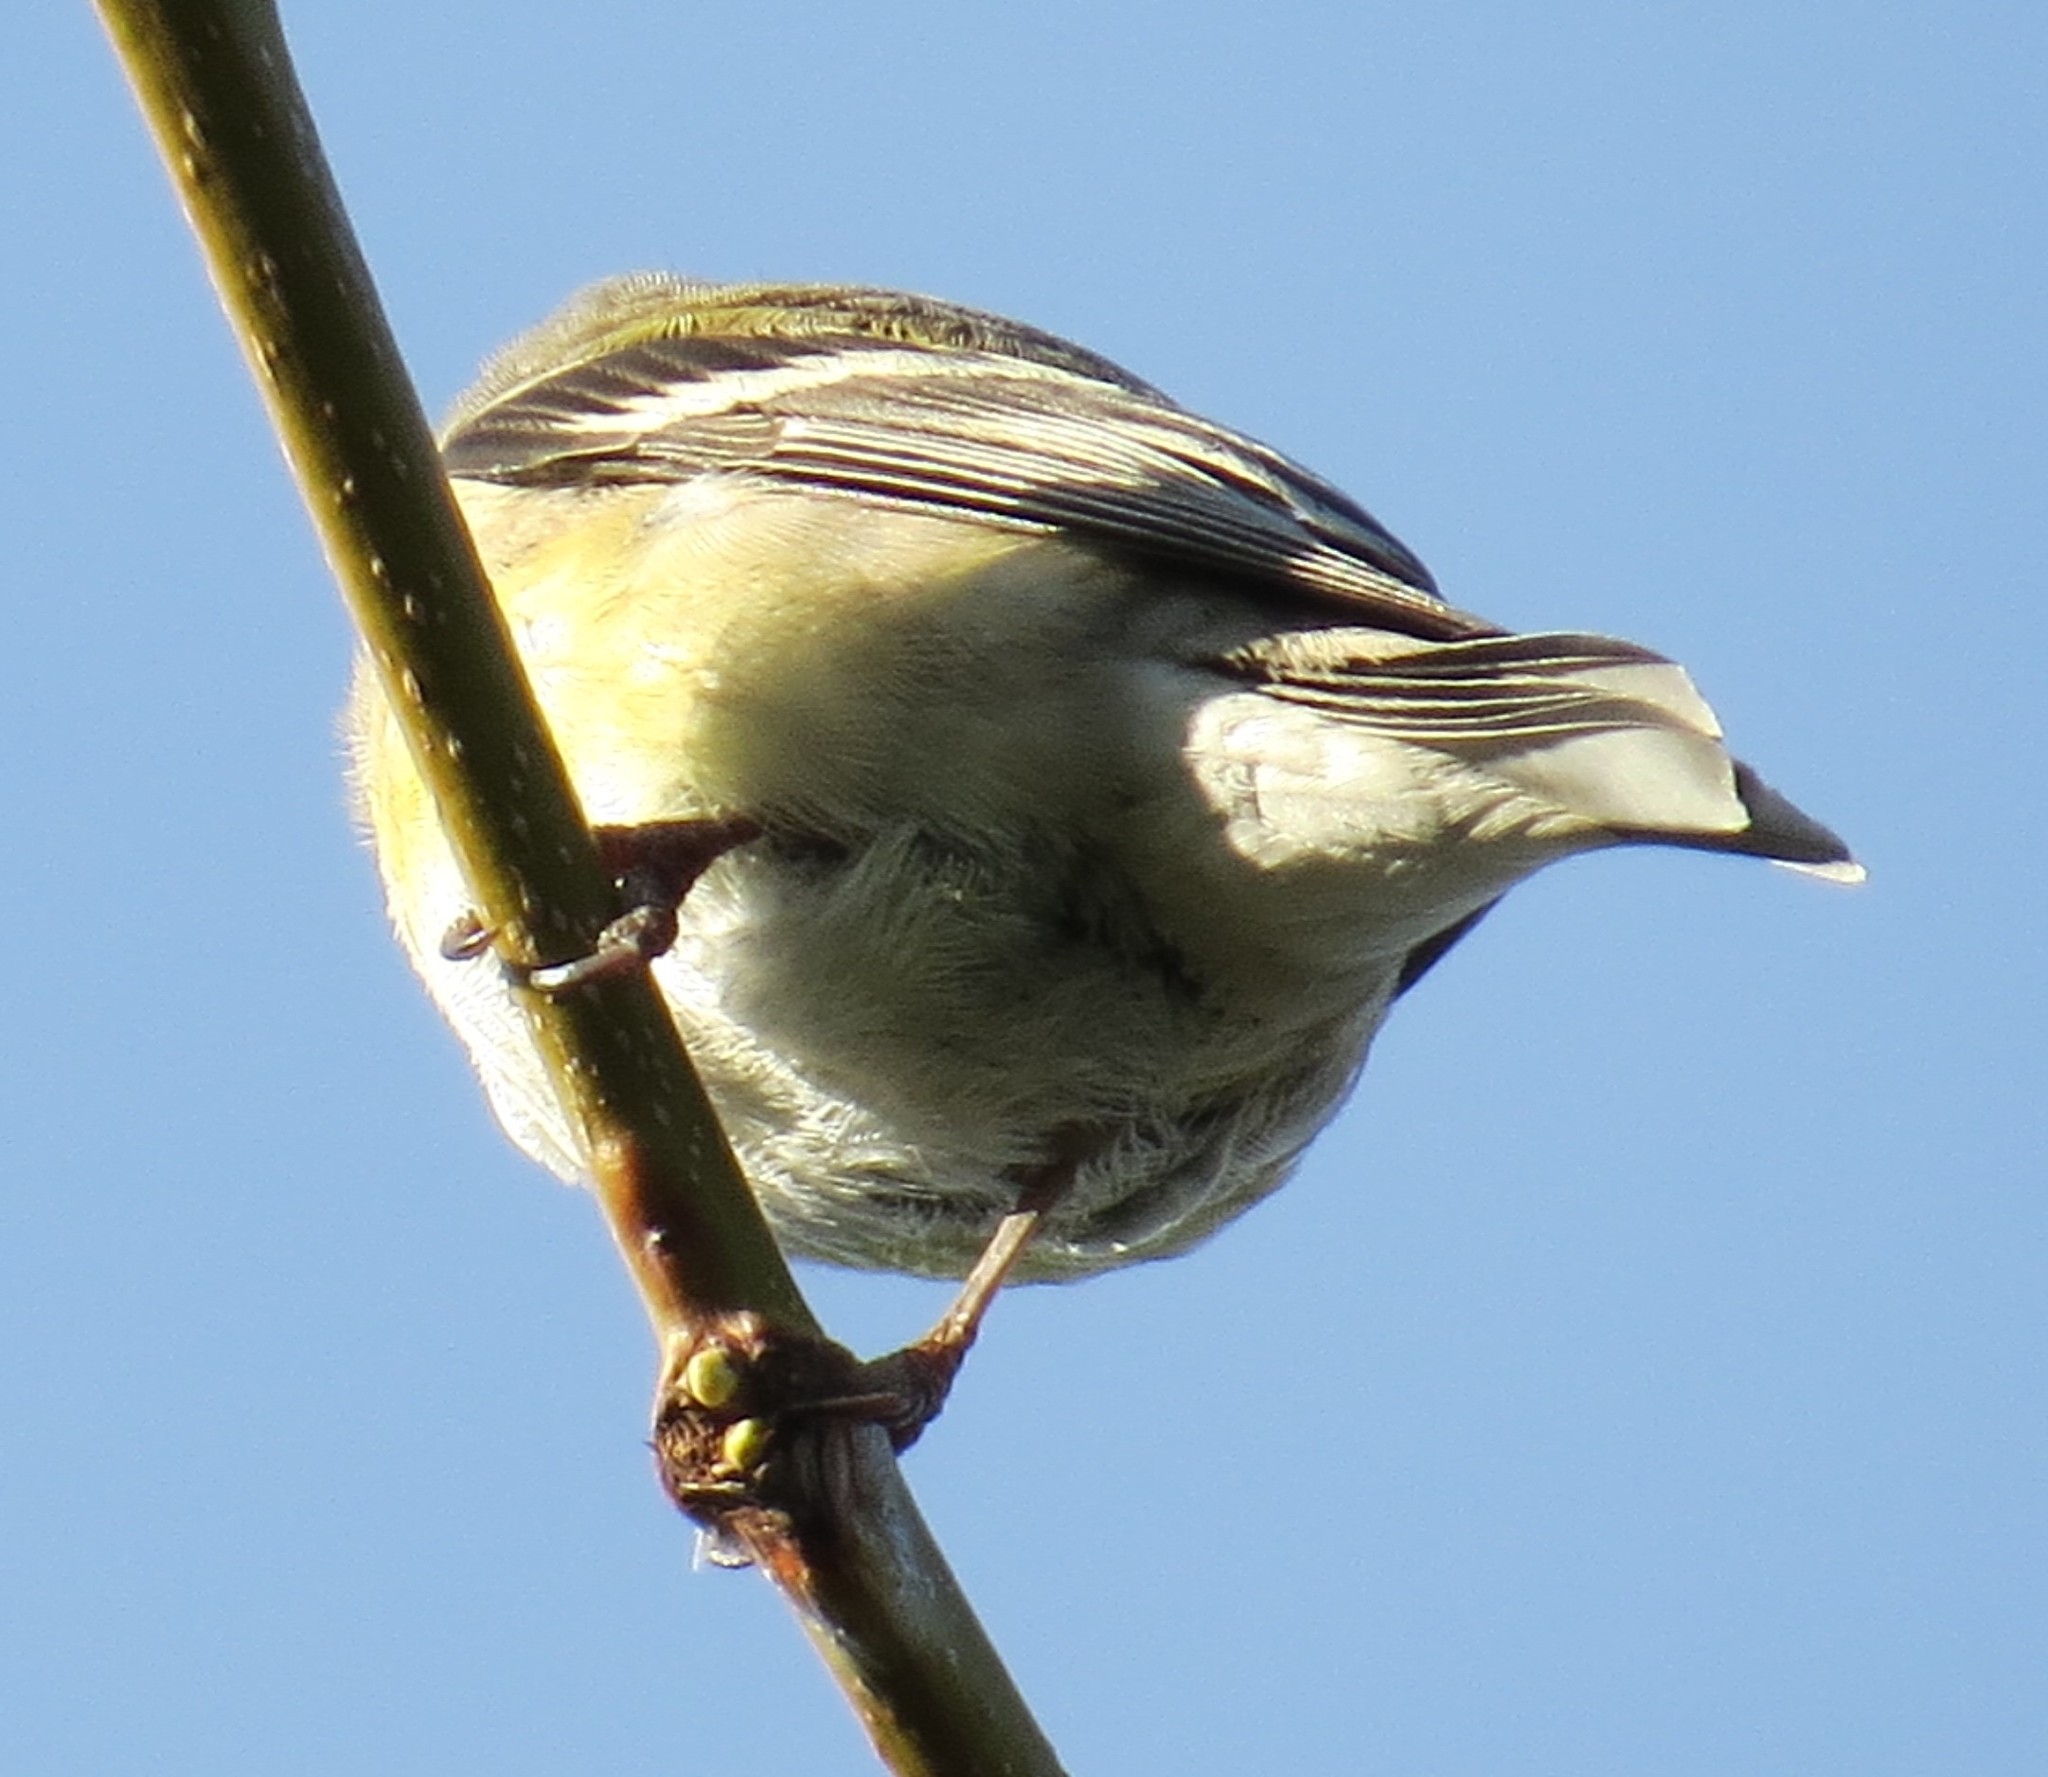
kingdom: Animalia
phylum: Chordata
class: Aves
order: Passeriformes
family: Fringillidae
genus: Spinus
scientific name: Spinus tristis
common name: American goldfinch
